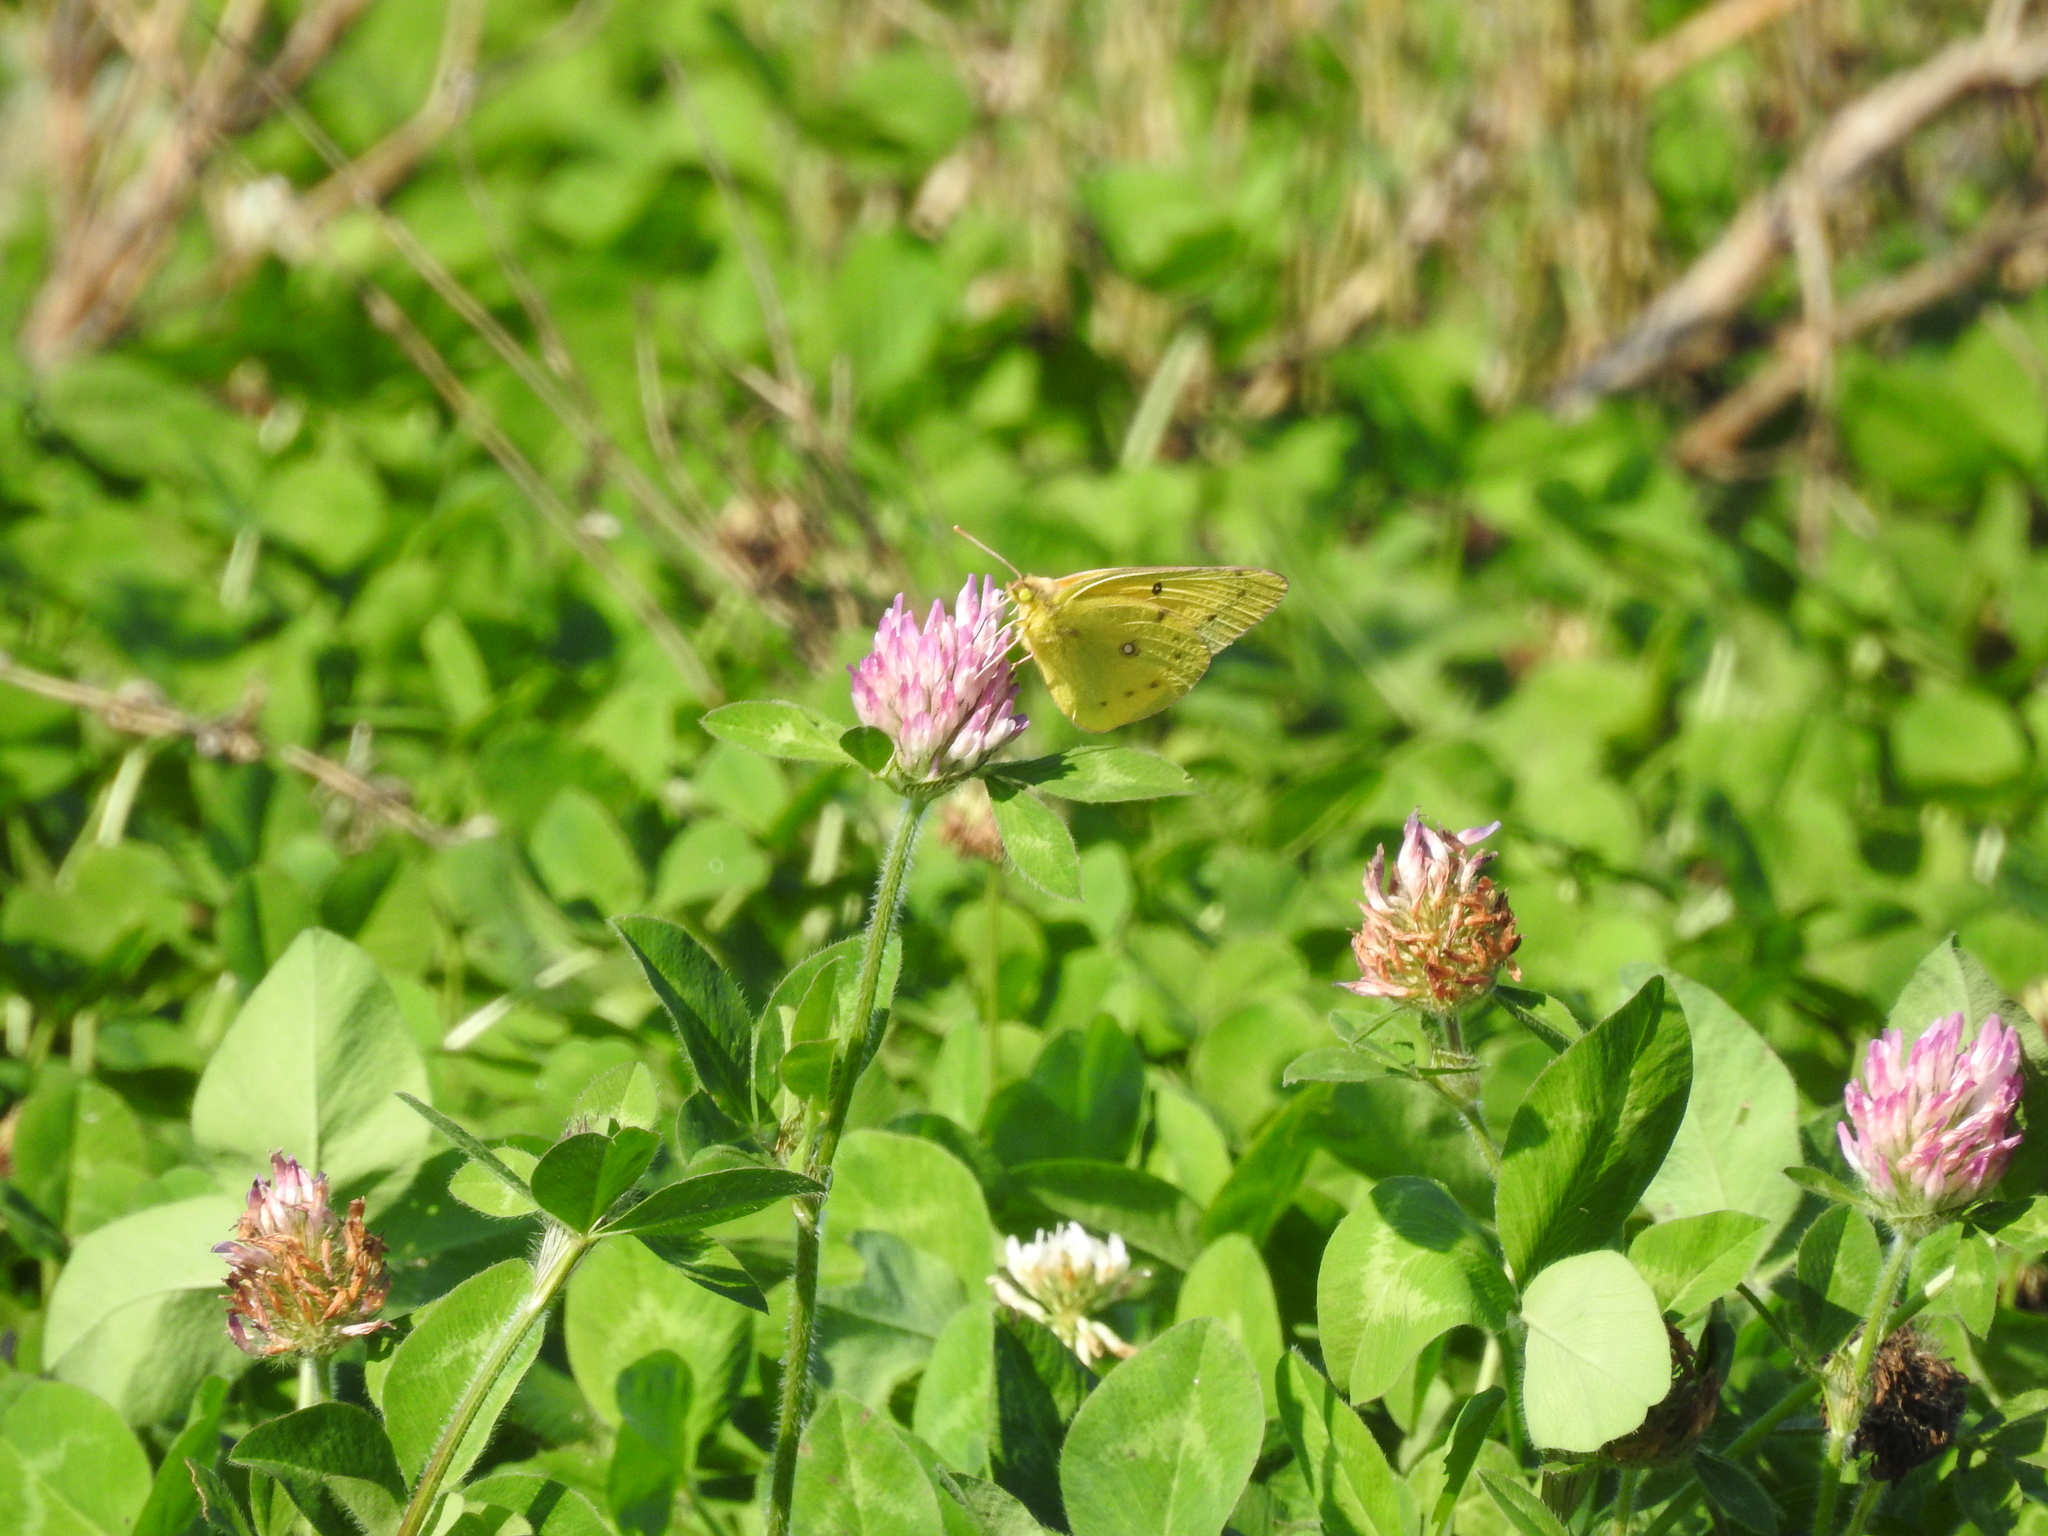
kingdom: Animalia
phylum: Arthropoda
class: Insecta
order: Lepidoptera
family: Pieridae
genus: Colias
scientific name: Colias eurytheme
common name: Alfalfa butterfly
